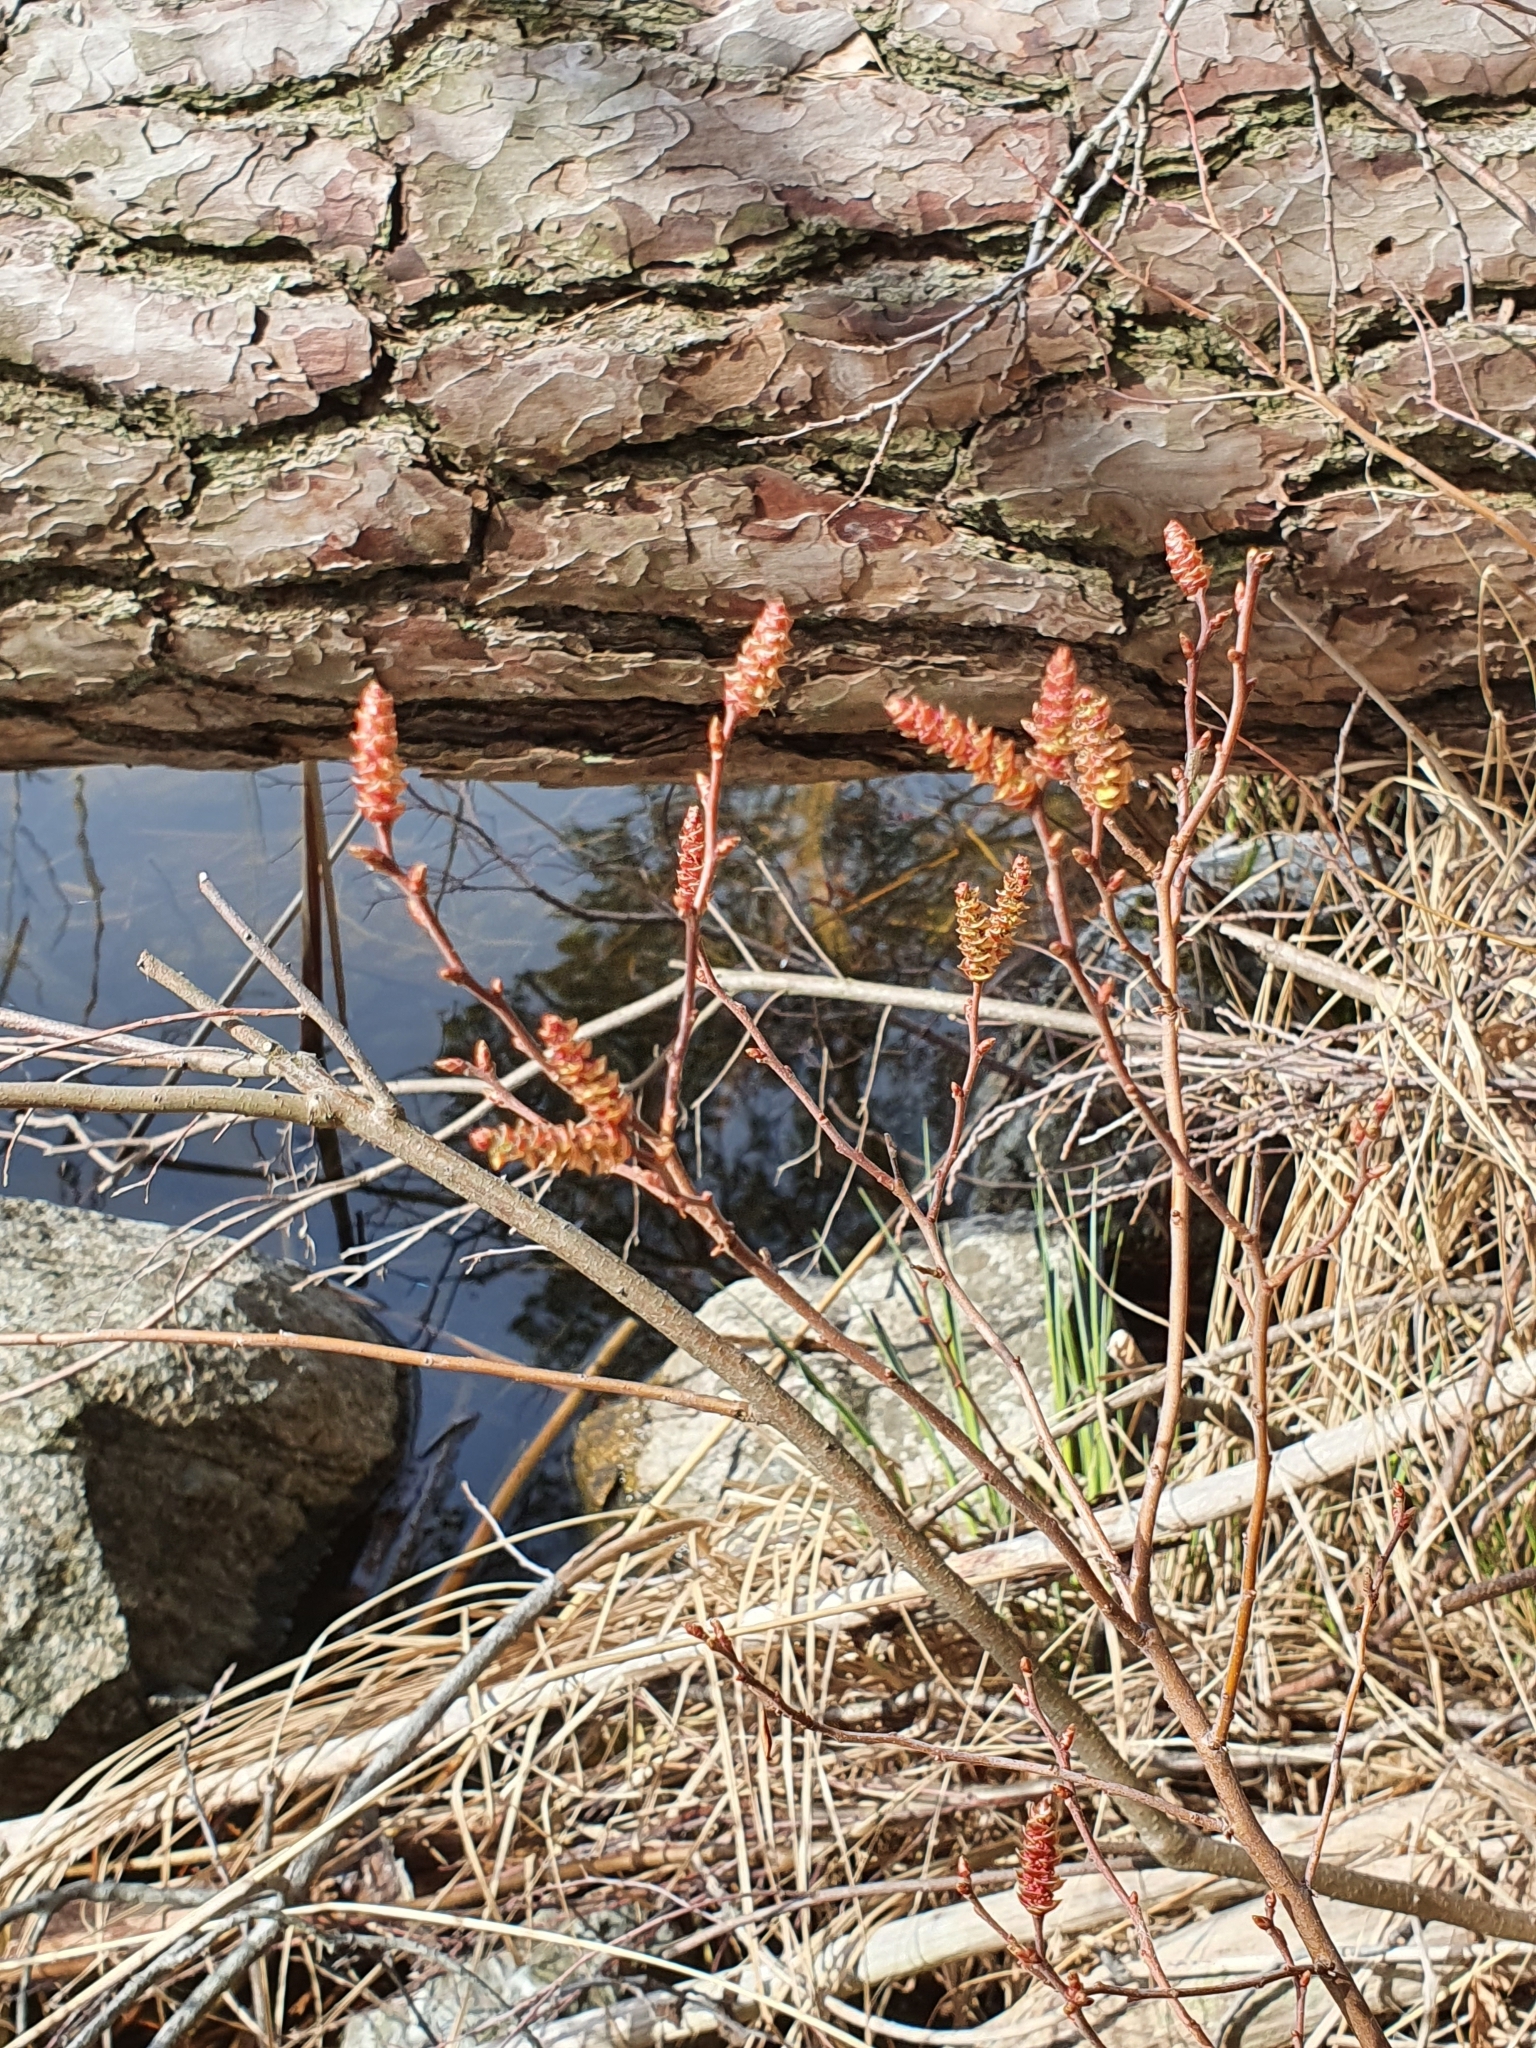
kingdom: Plantae
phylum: Tracheophyta
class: Magnoliopsida
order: Fagales
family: Myricaceae
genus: Myrica
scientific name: Myrica gale
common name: Sweet gale
